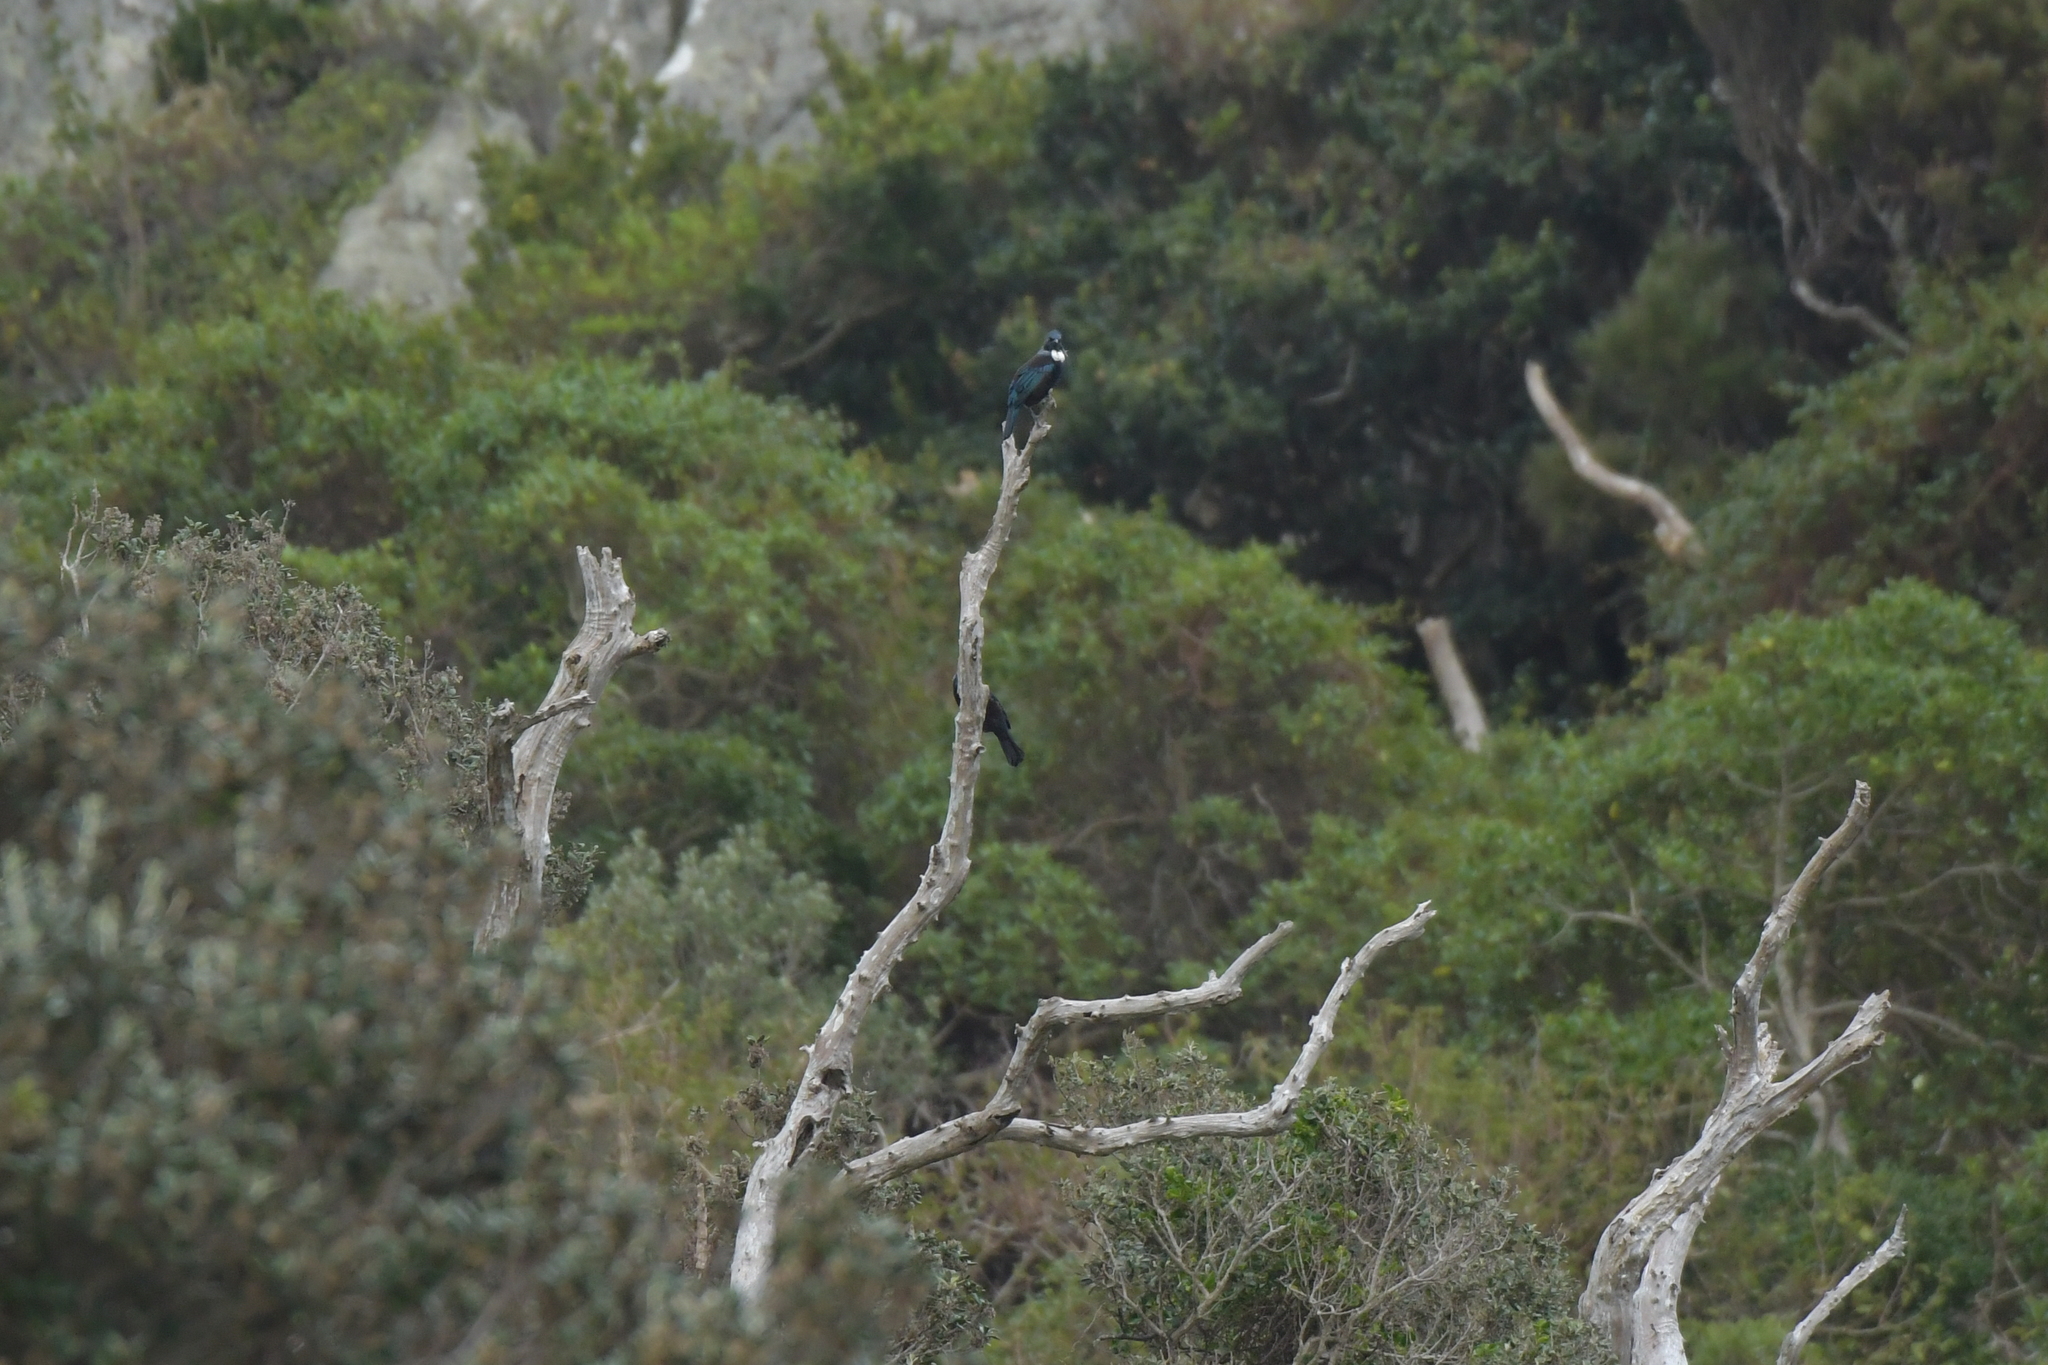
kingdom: Animalia
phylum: Chordata
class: Aves
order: Passeriformes
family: Meliphagidae
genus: Prosthemadera
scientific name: Prosthemadera novaeseelandiae
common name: Tui
